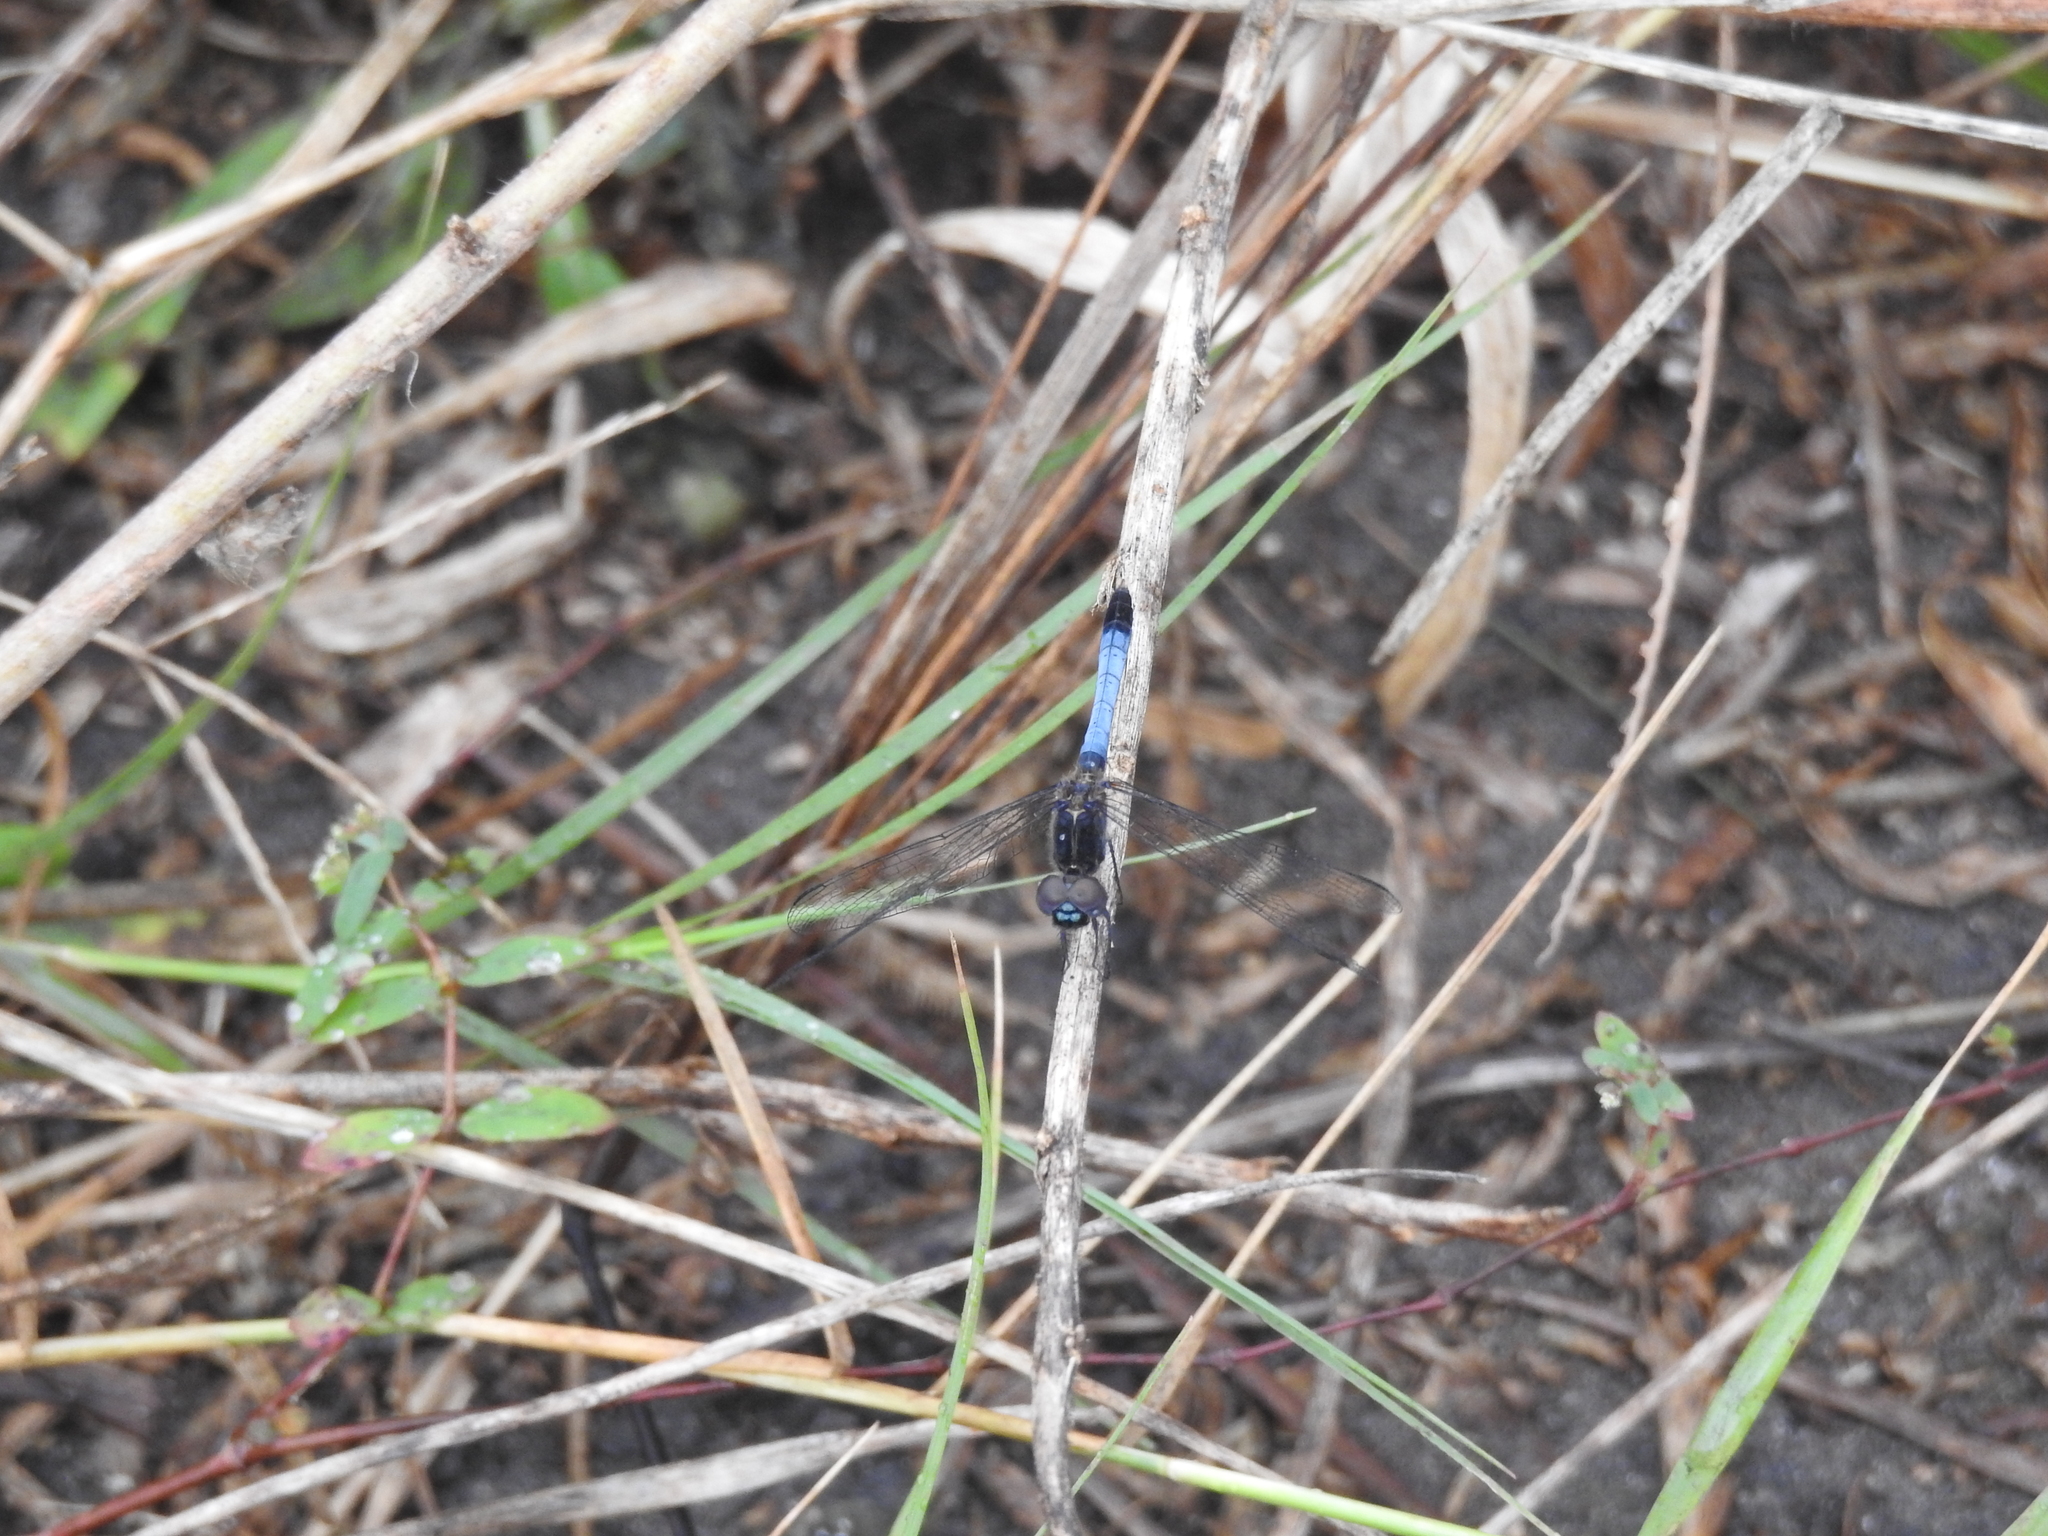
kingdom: Animalia
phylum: Arthropoda
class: Insecta
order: Odonata
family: Libellulidae
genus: Erythrodiplax
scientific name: Erythrodiplax minuscula
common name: Little blue dragonlet
